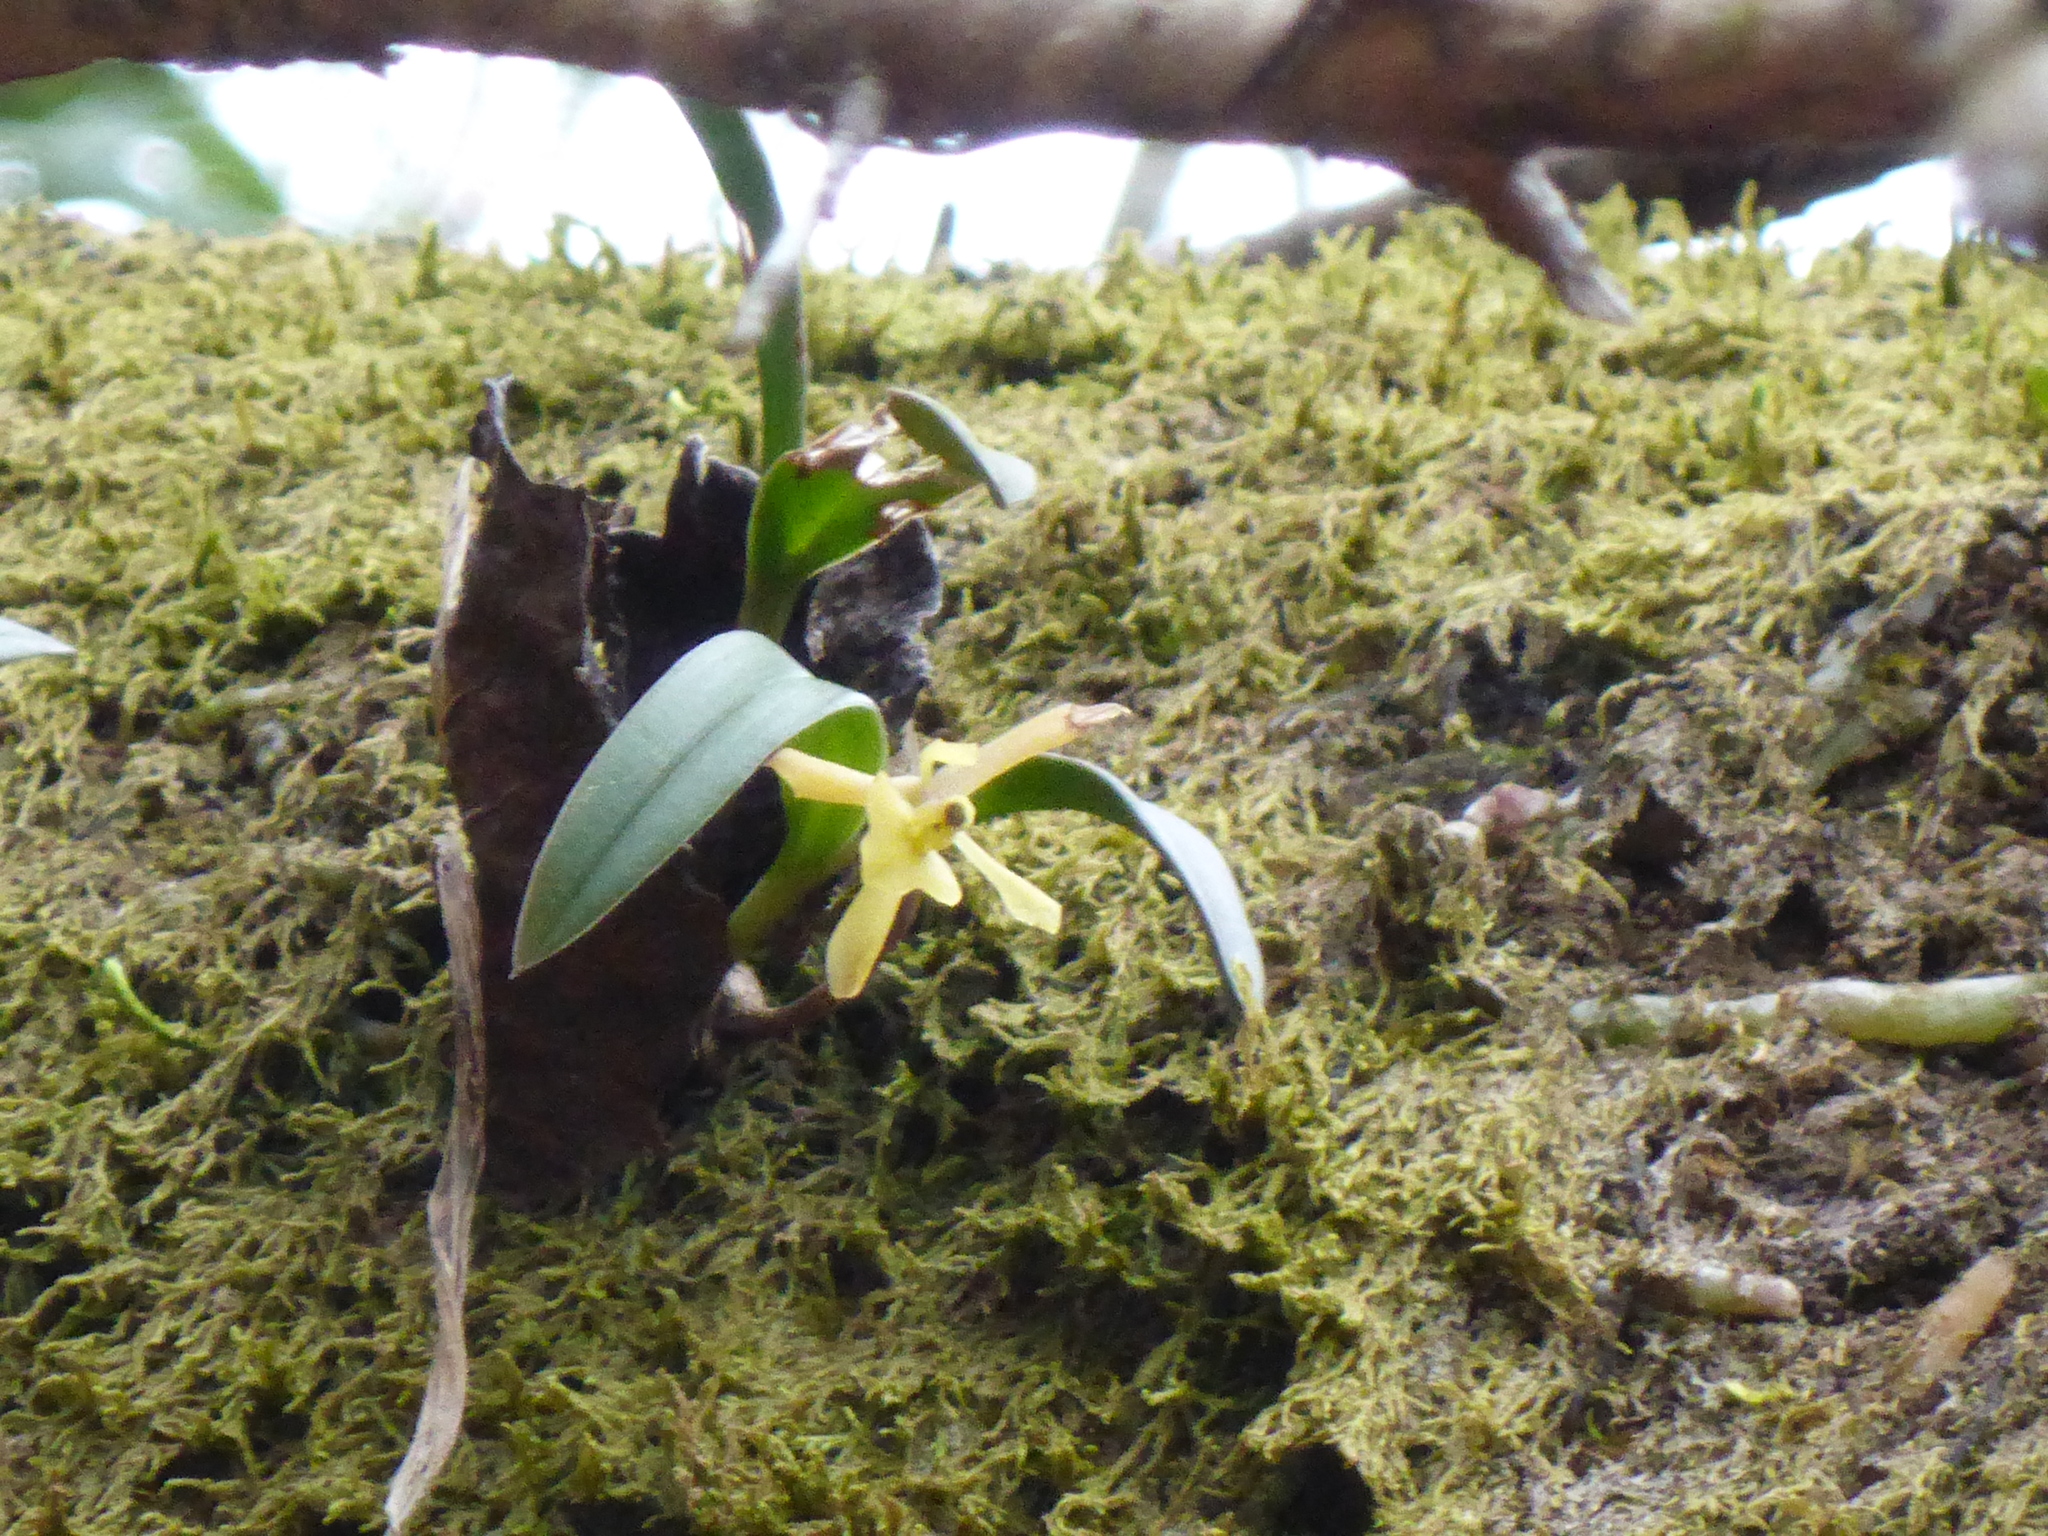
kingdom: Plantae
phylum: Tracheophyta
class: Liliopsida
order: Asparagales
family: Orchidaceae
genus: Epidendrum
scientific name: Epidendrum conopseum
